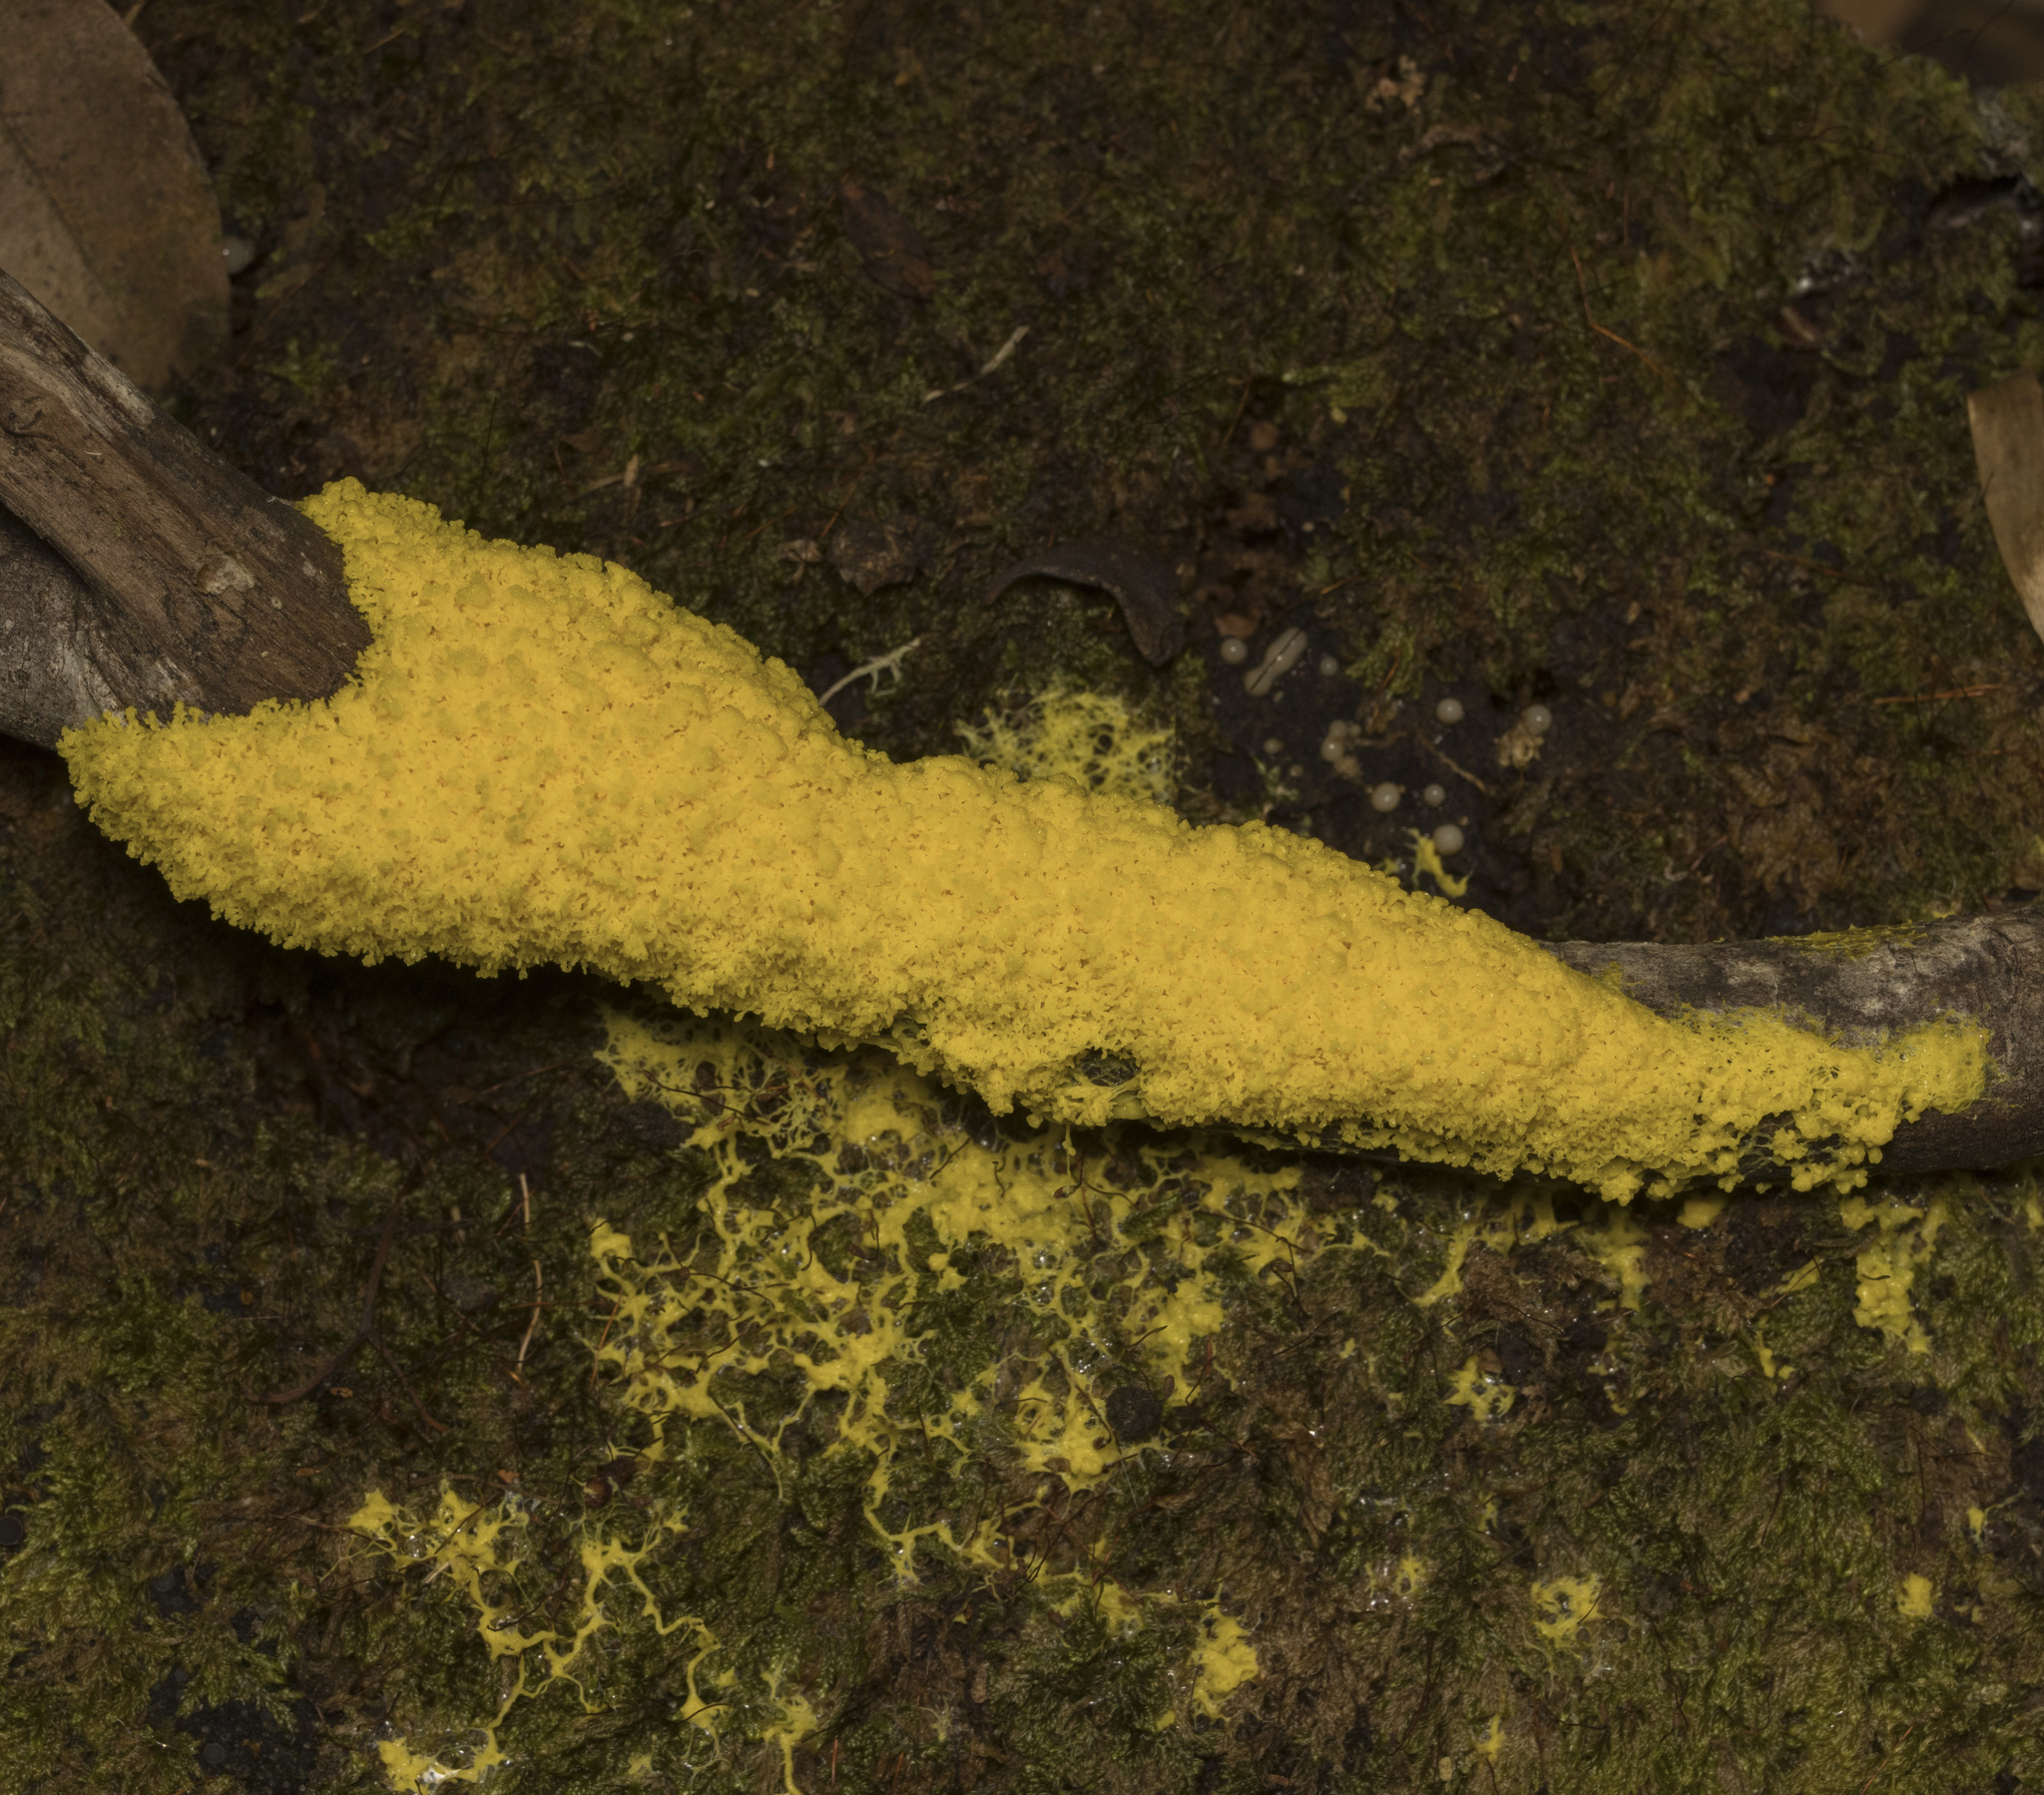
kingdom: Protozoa
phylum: Mycetozoa
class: Myxomycetes
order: Physarales
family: Physaraceae
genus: Fuligo
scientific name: Fuligo septica
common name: Dog vomit slime mold
